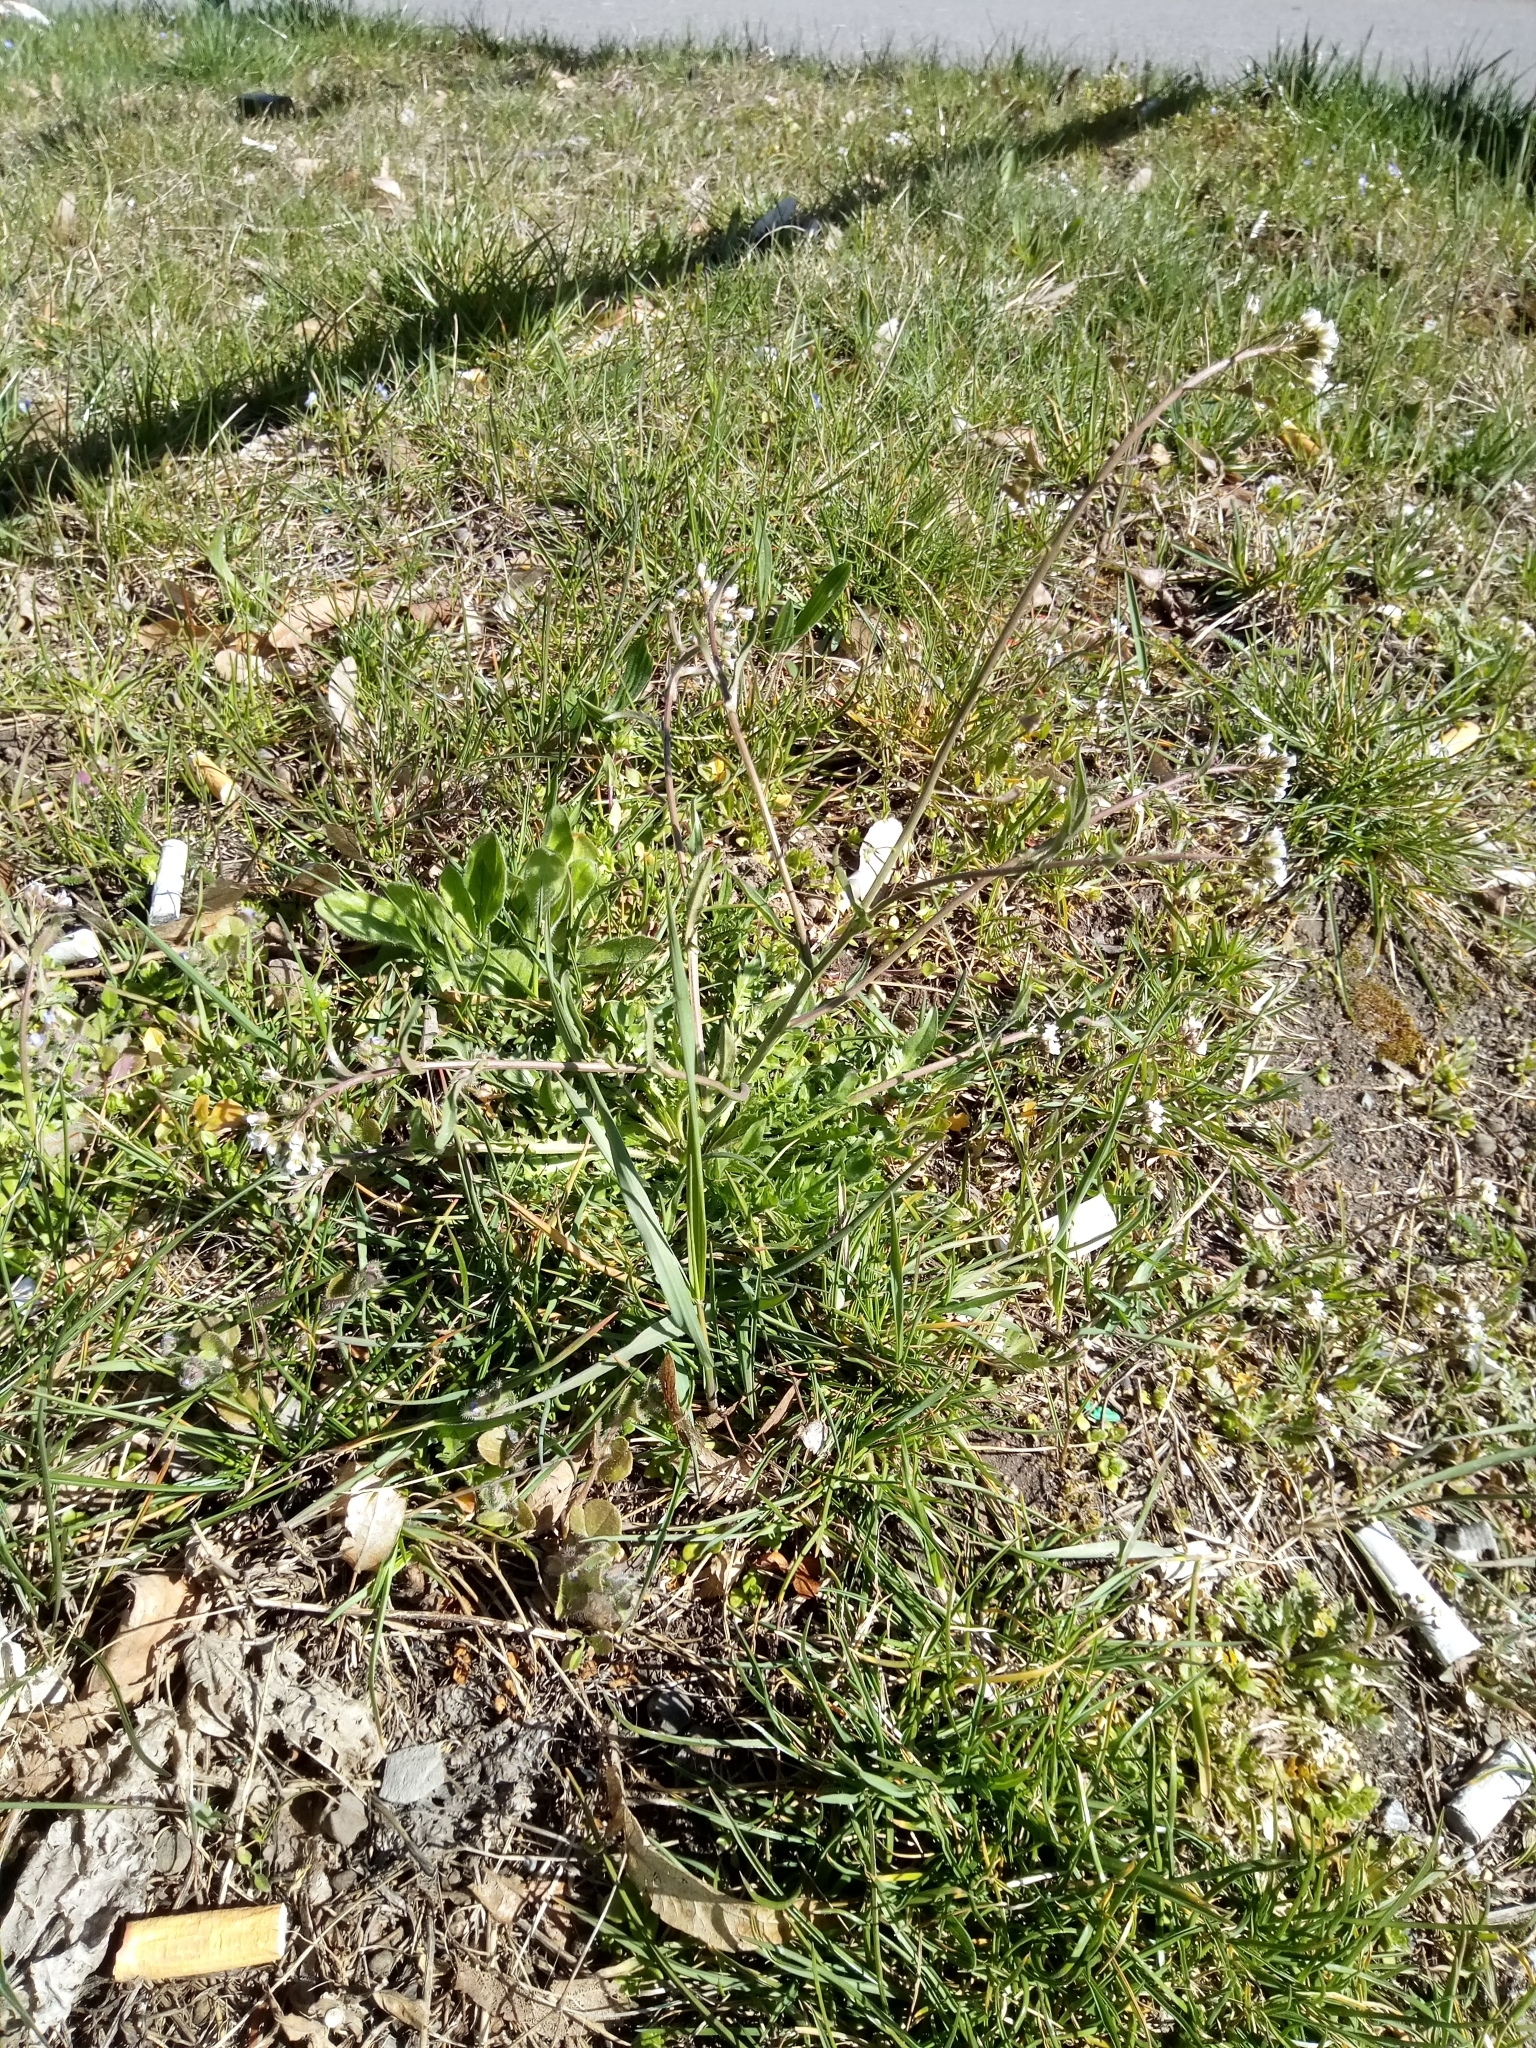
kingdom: Plantae
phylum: Tracheophyta
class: Magnoliopsida
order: Brassicales
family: Brassicaceae
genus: Capsella
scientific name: Capsella bursa-pastoris
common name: Shepherd's purse
